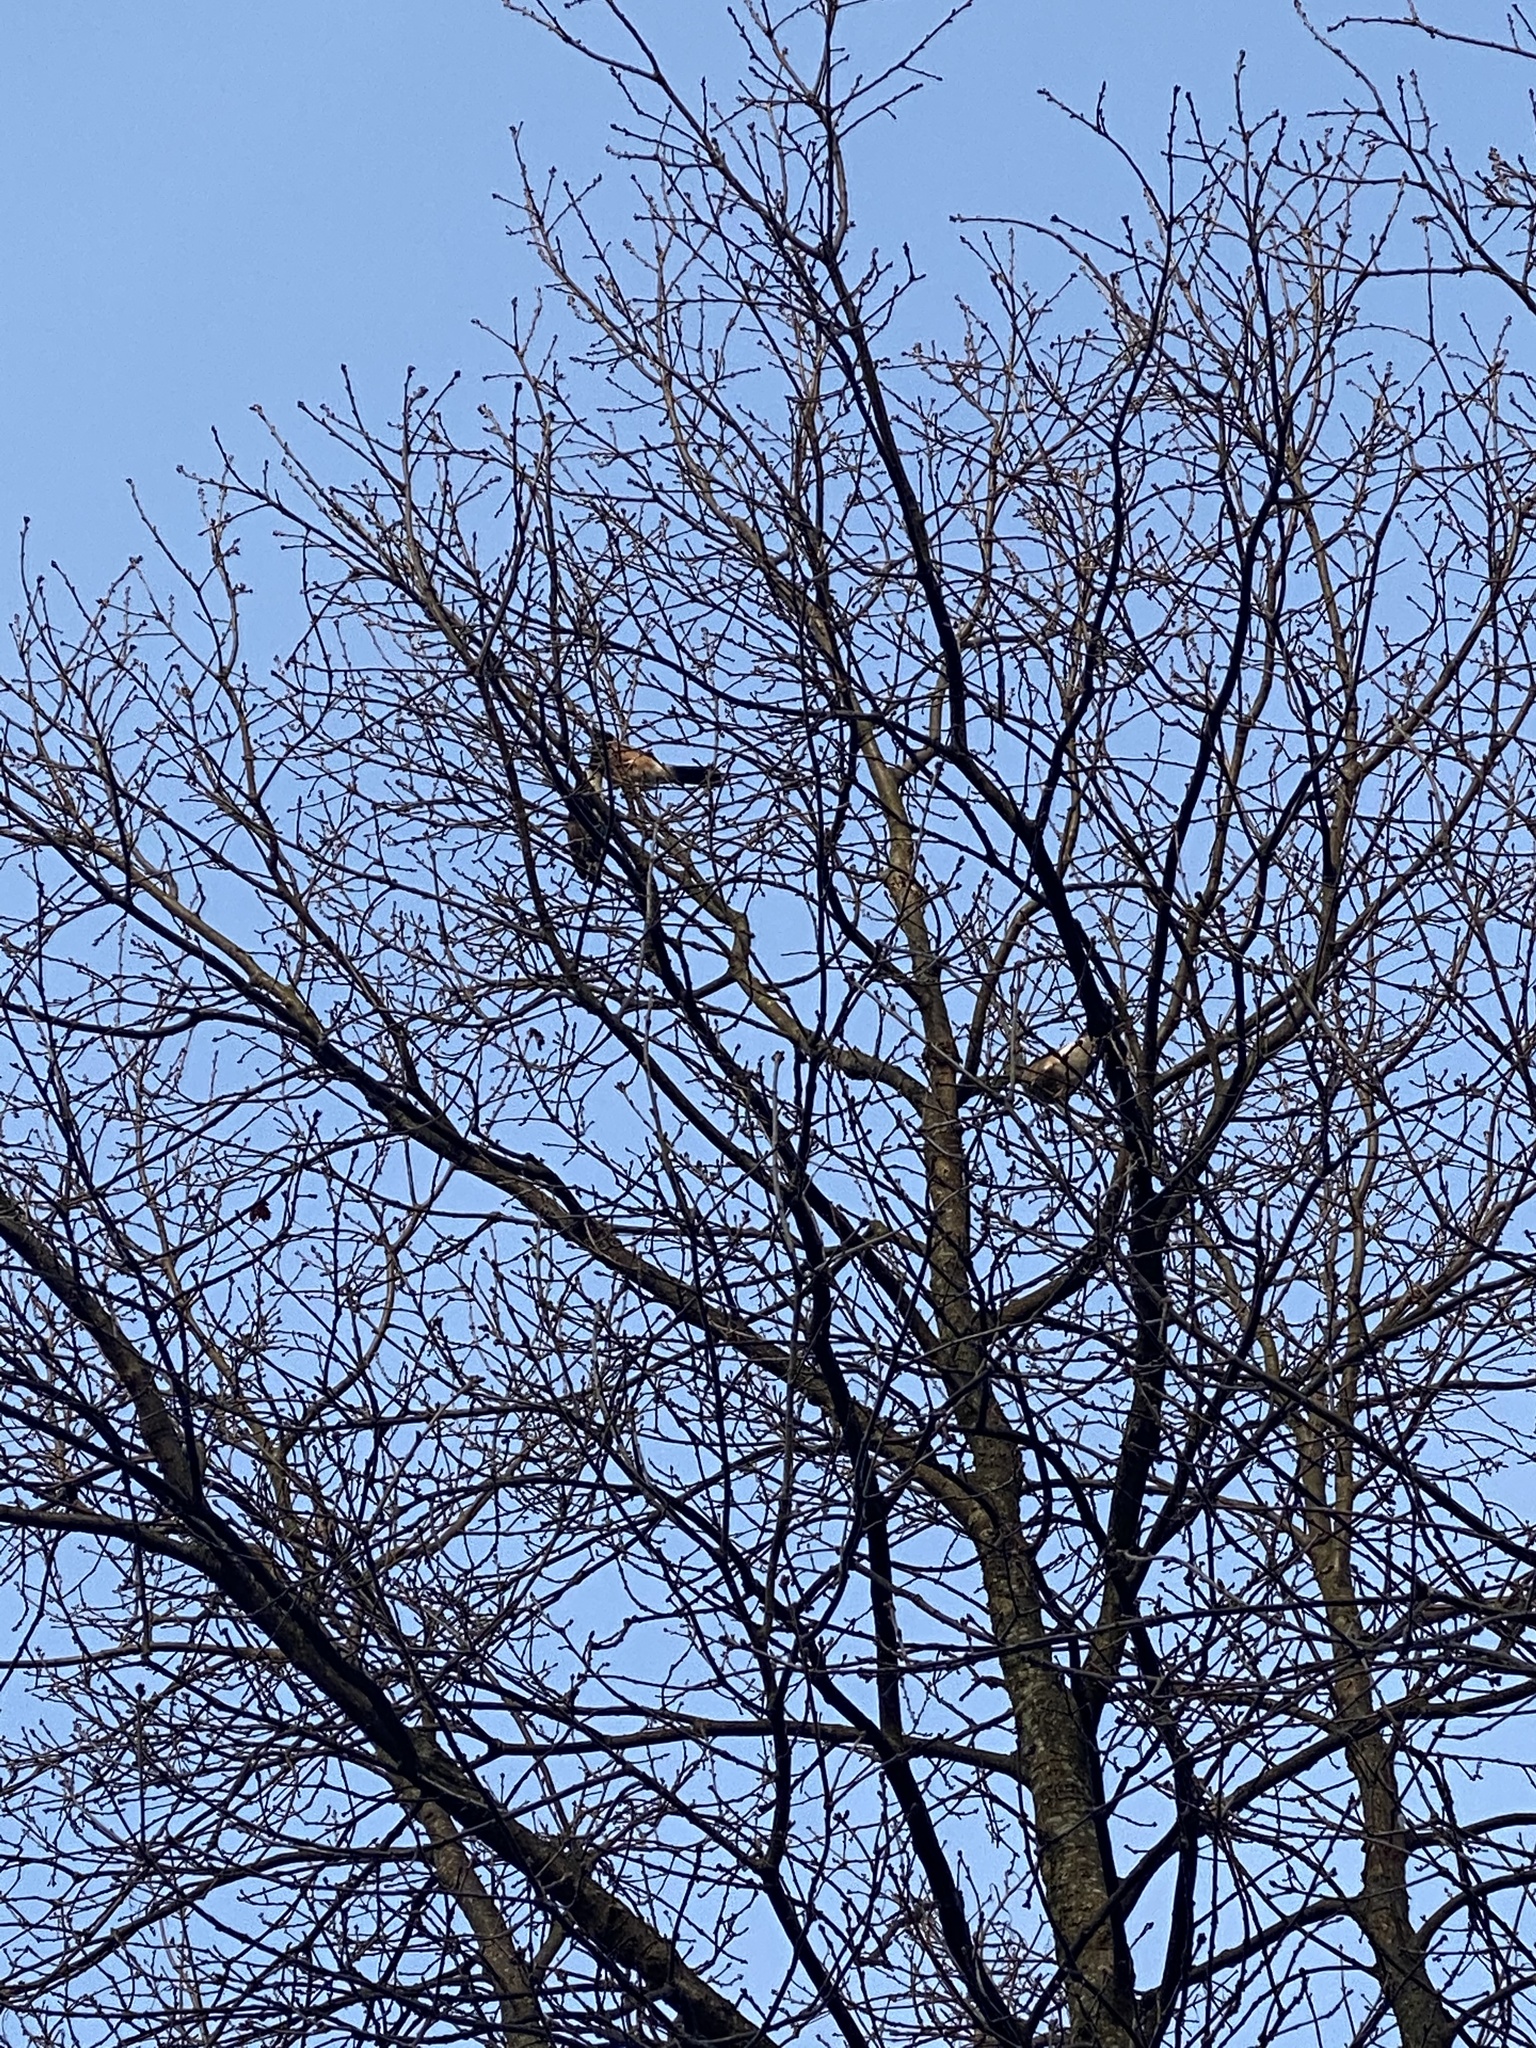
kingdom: Animalia
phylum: Chordata
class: Aves
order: Passeriformes
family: Corvidae
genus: Garrulus
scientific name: Garrulus glandarius
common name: Eurasian jay
